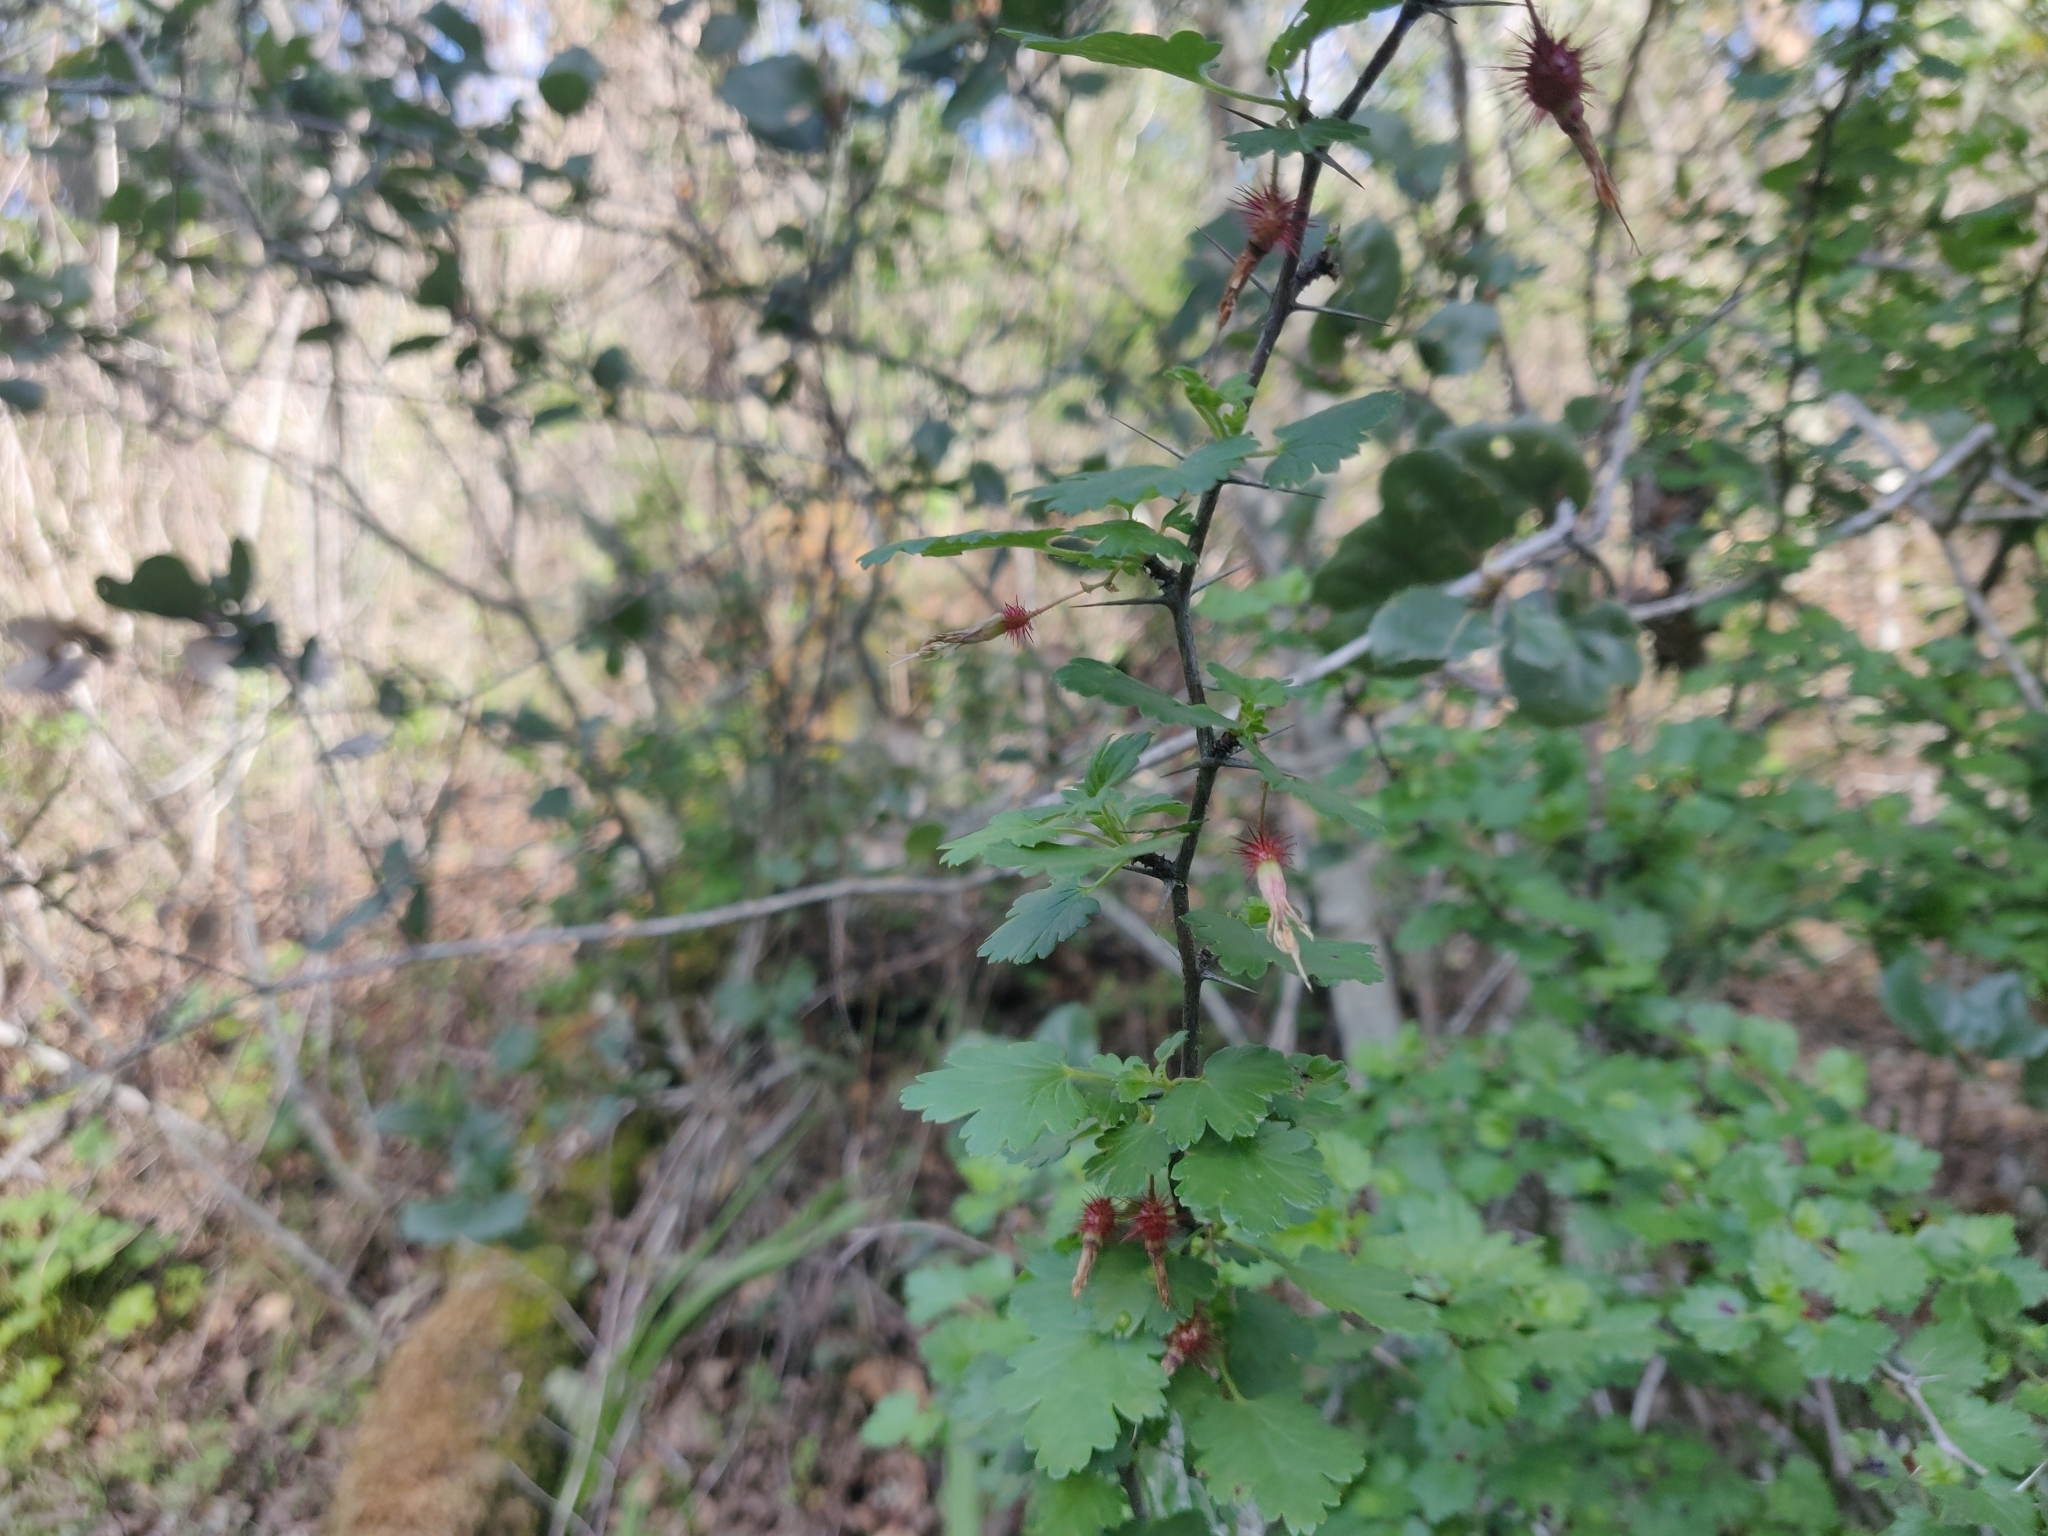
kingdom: Plantae
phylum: Tracheophyta
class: Magnoliopsida
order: Saxifragales
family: Grossulariaceae
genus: Ribes
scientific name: Ribes californicum
